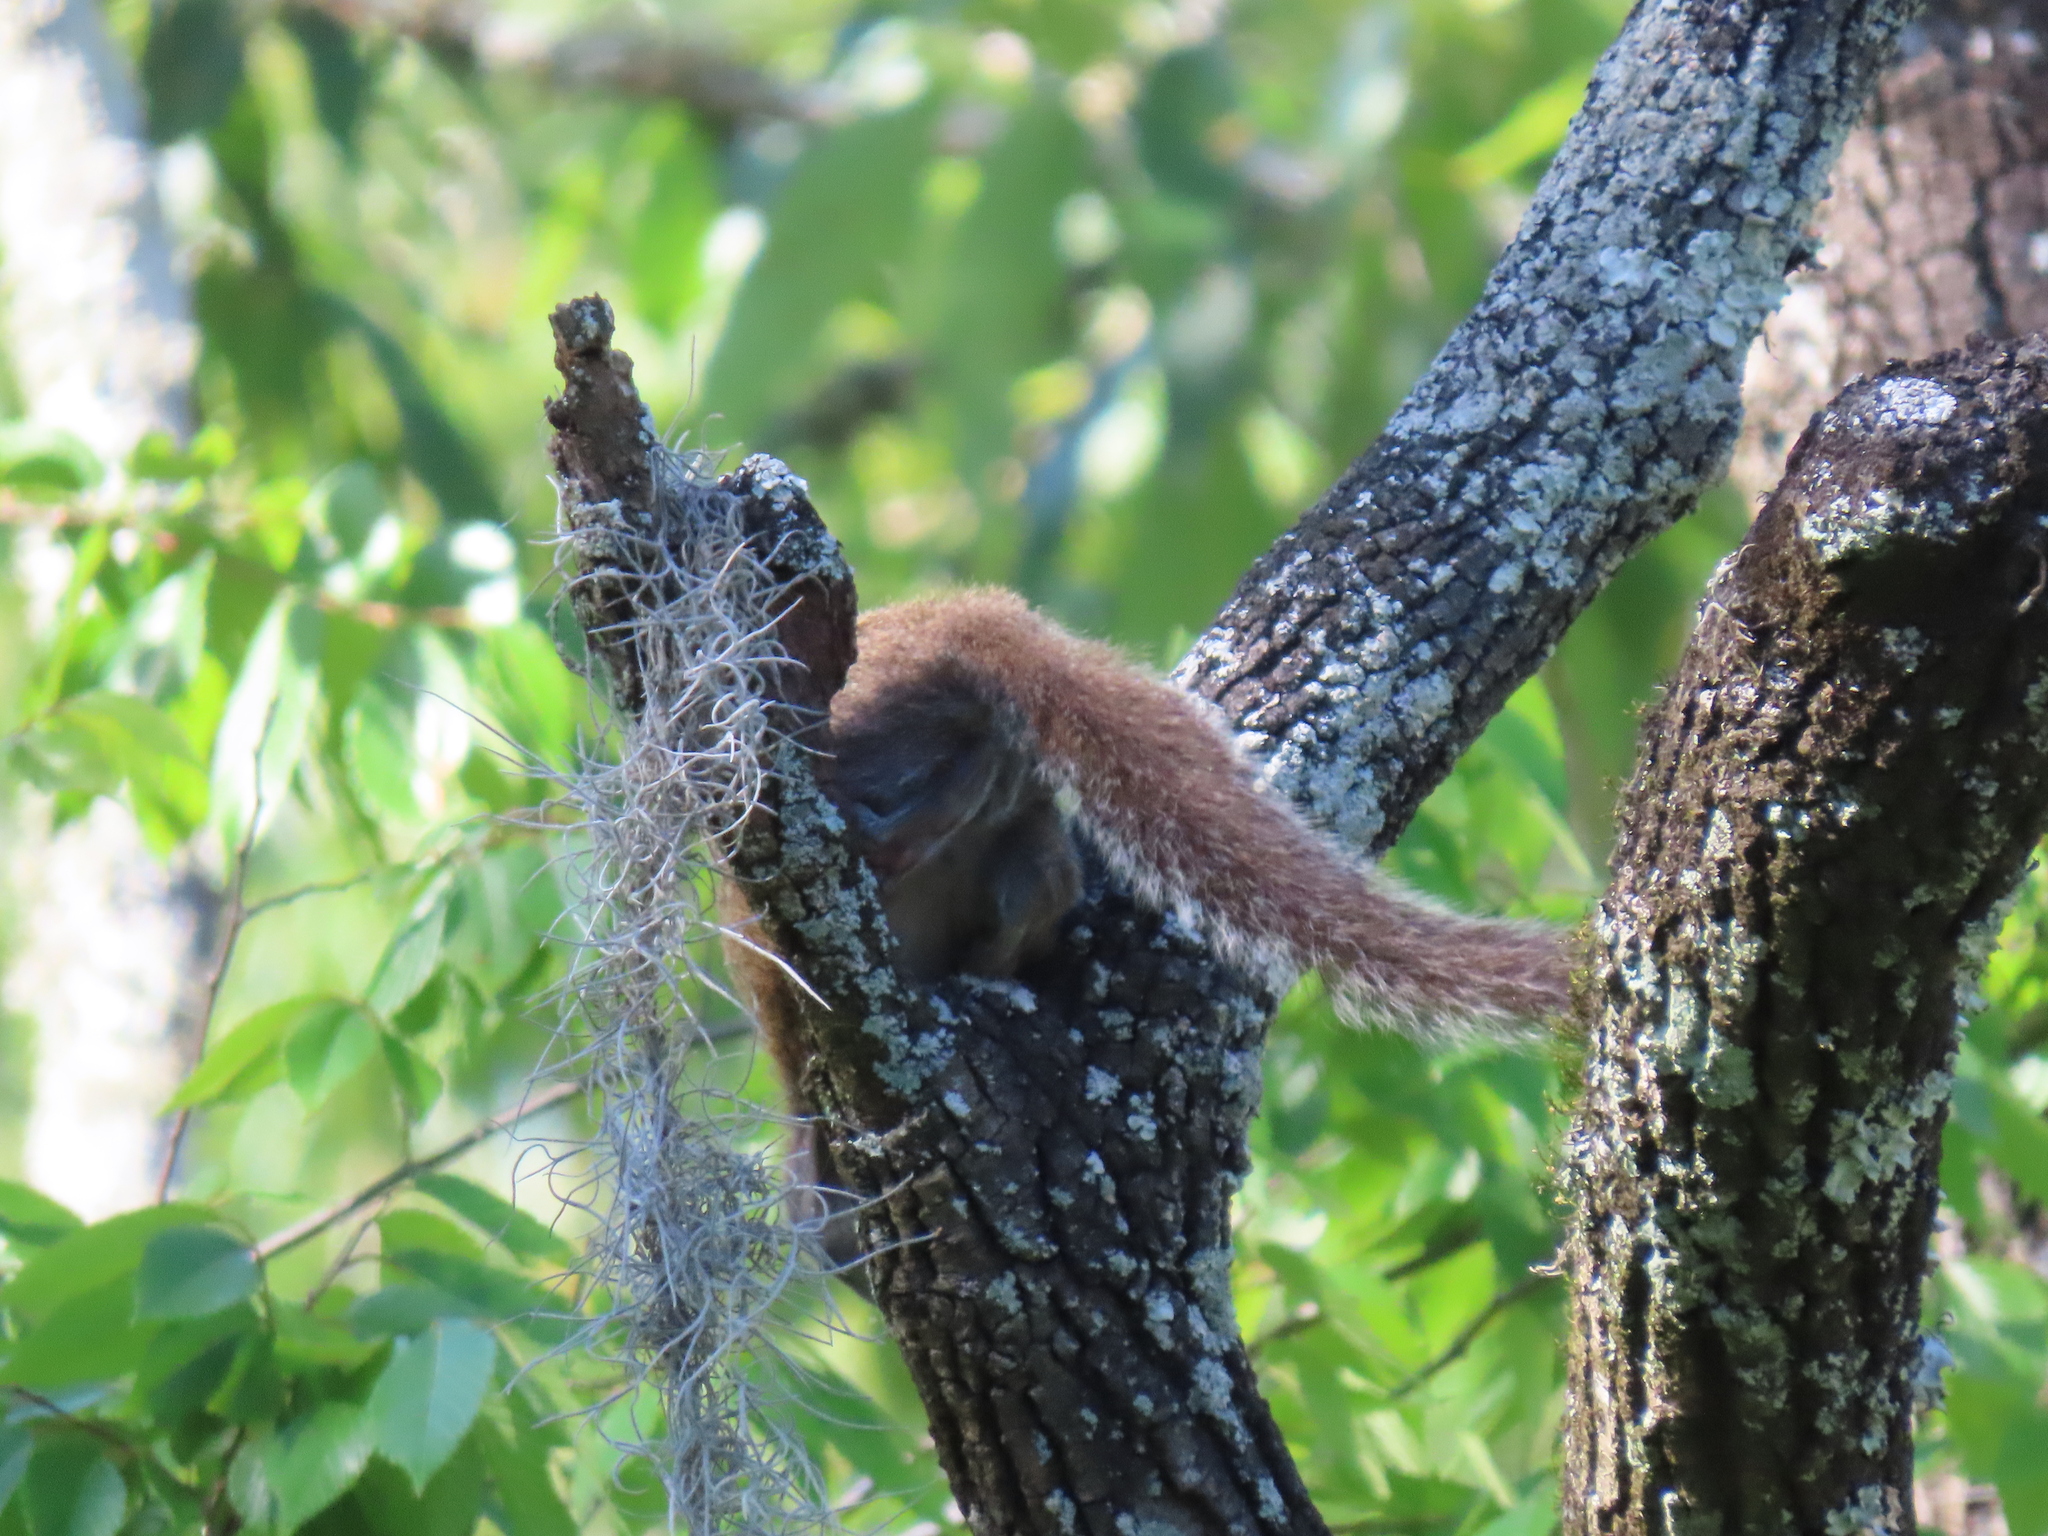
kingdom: Animalia
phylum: Chordata
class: Mammalia
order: Rodentia
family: Sciuridae
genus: Sciurus
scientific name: Sciurus carolinensis
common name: Eastern gray squirrel
